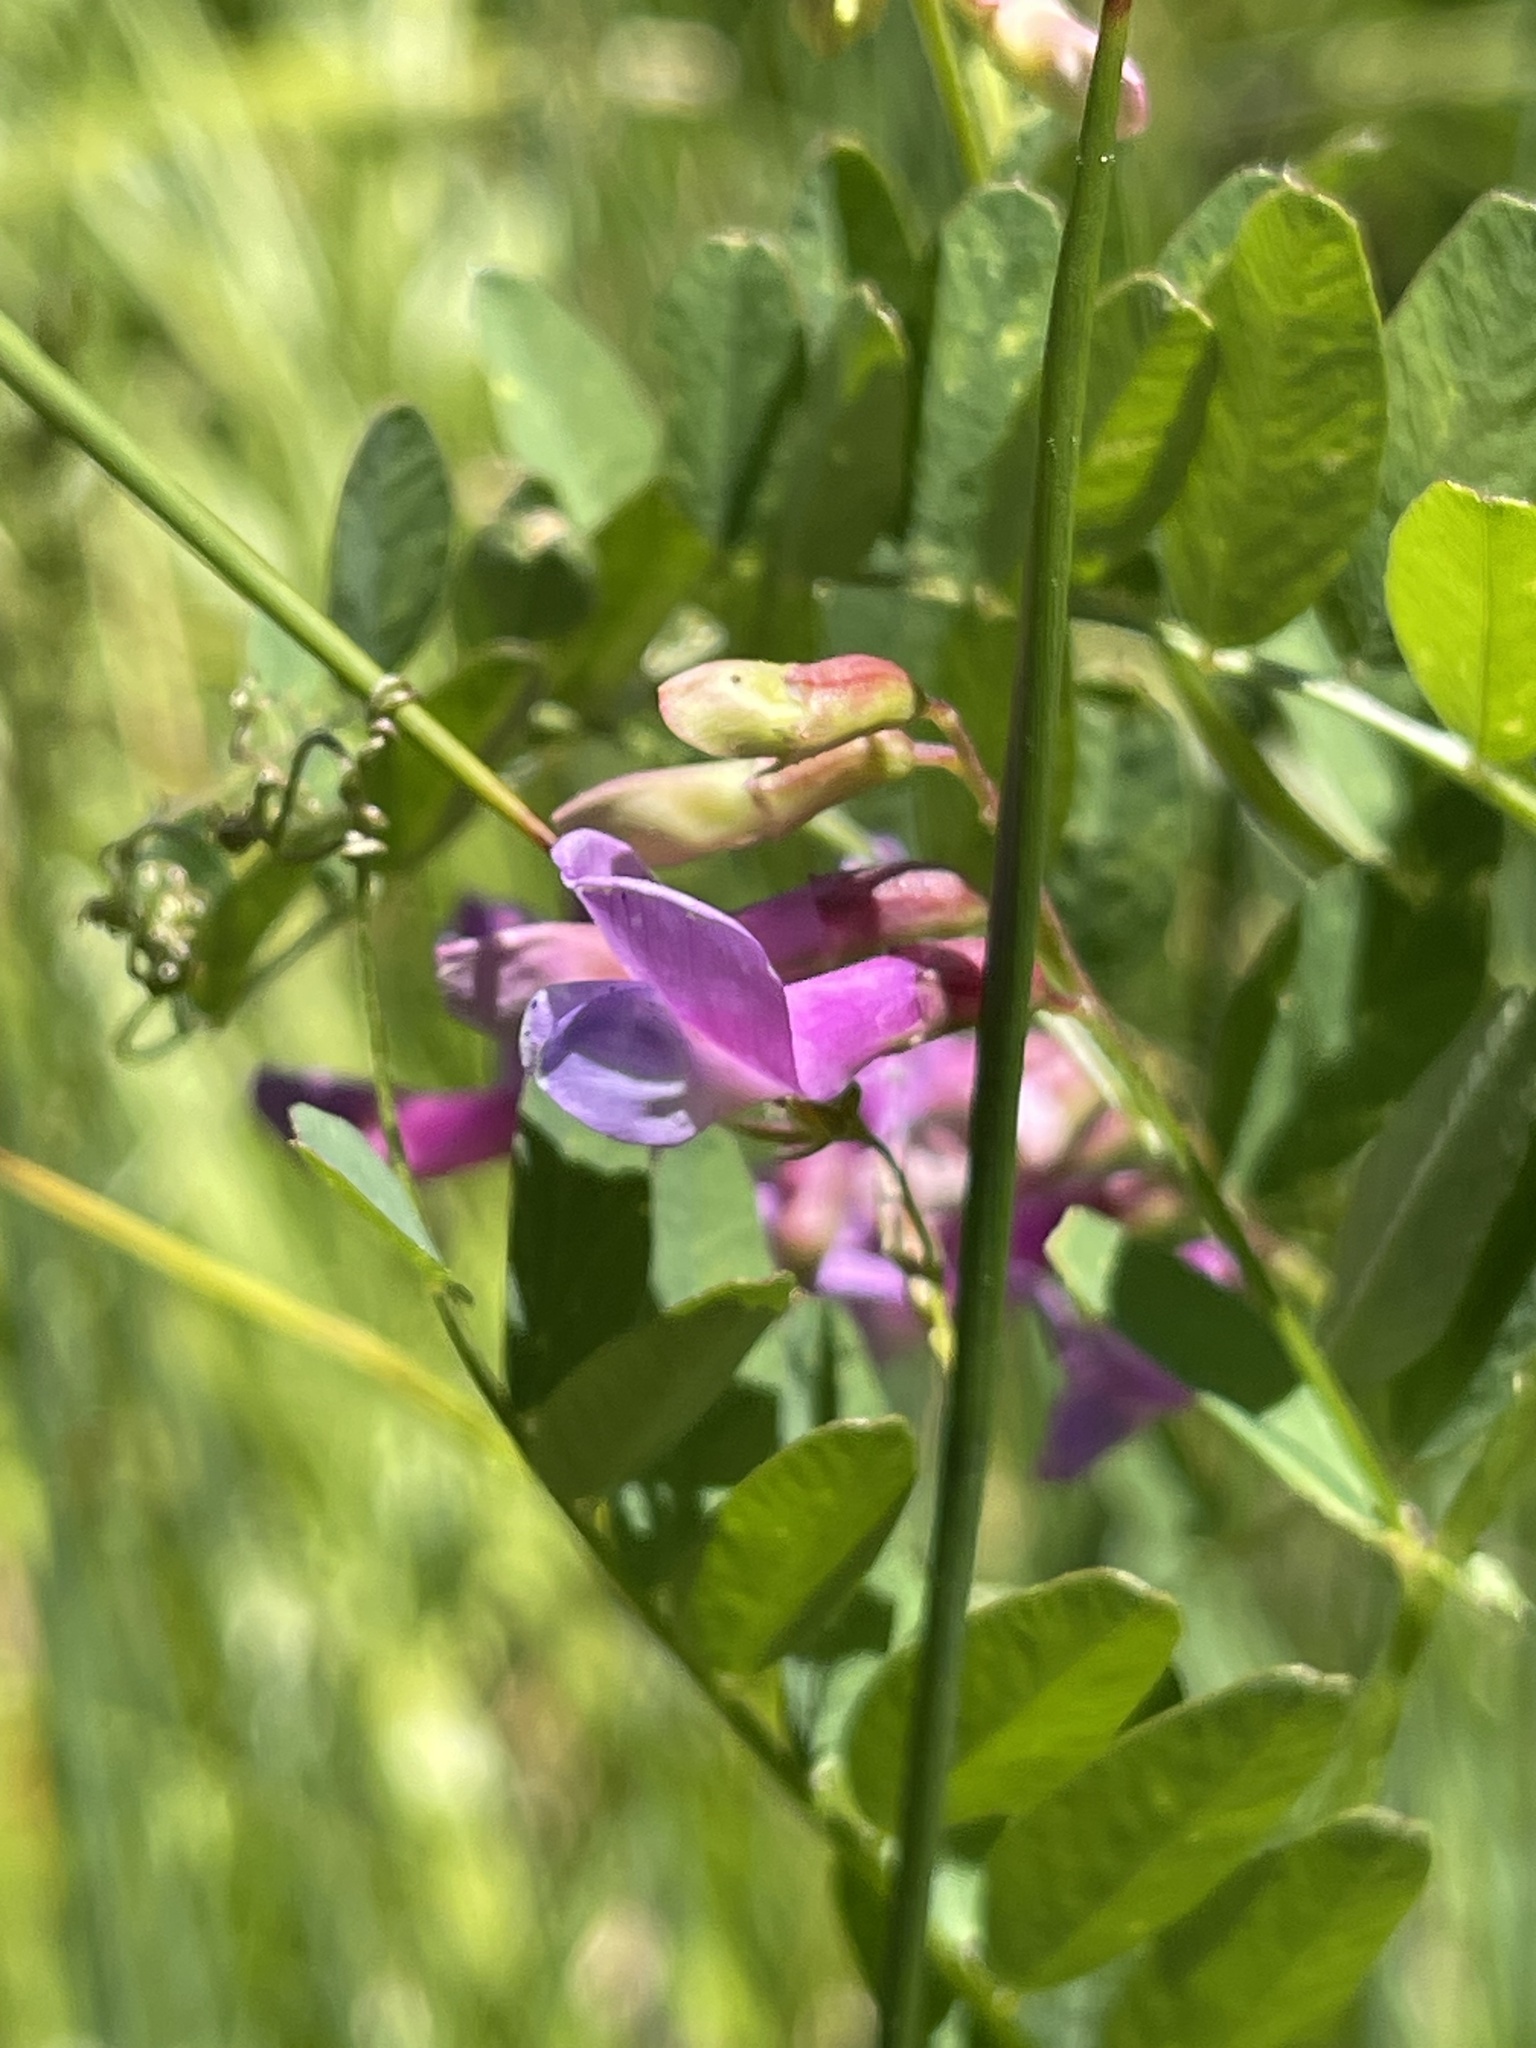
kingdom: Plantae
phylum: Tracheophyta
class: Magnoliopsida
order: Fabales
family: Fabaceae
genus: Vicia
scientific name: Vicia americana
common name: American vetch
